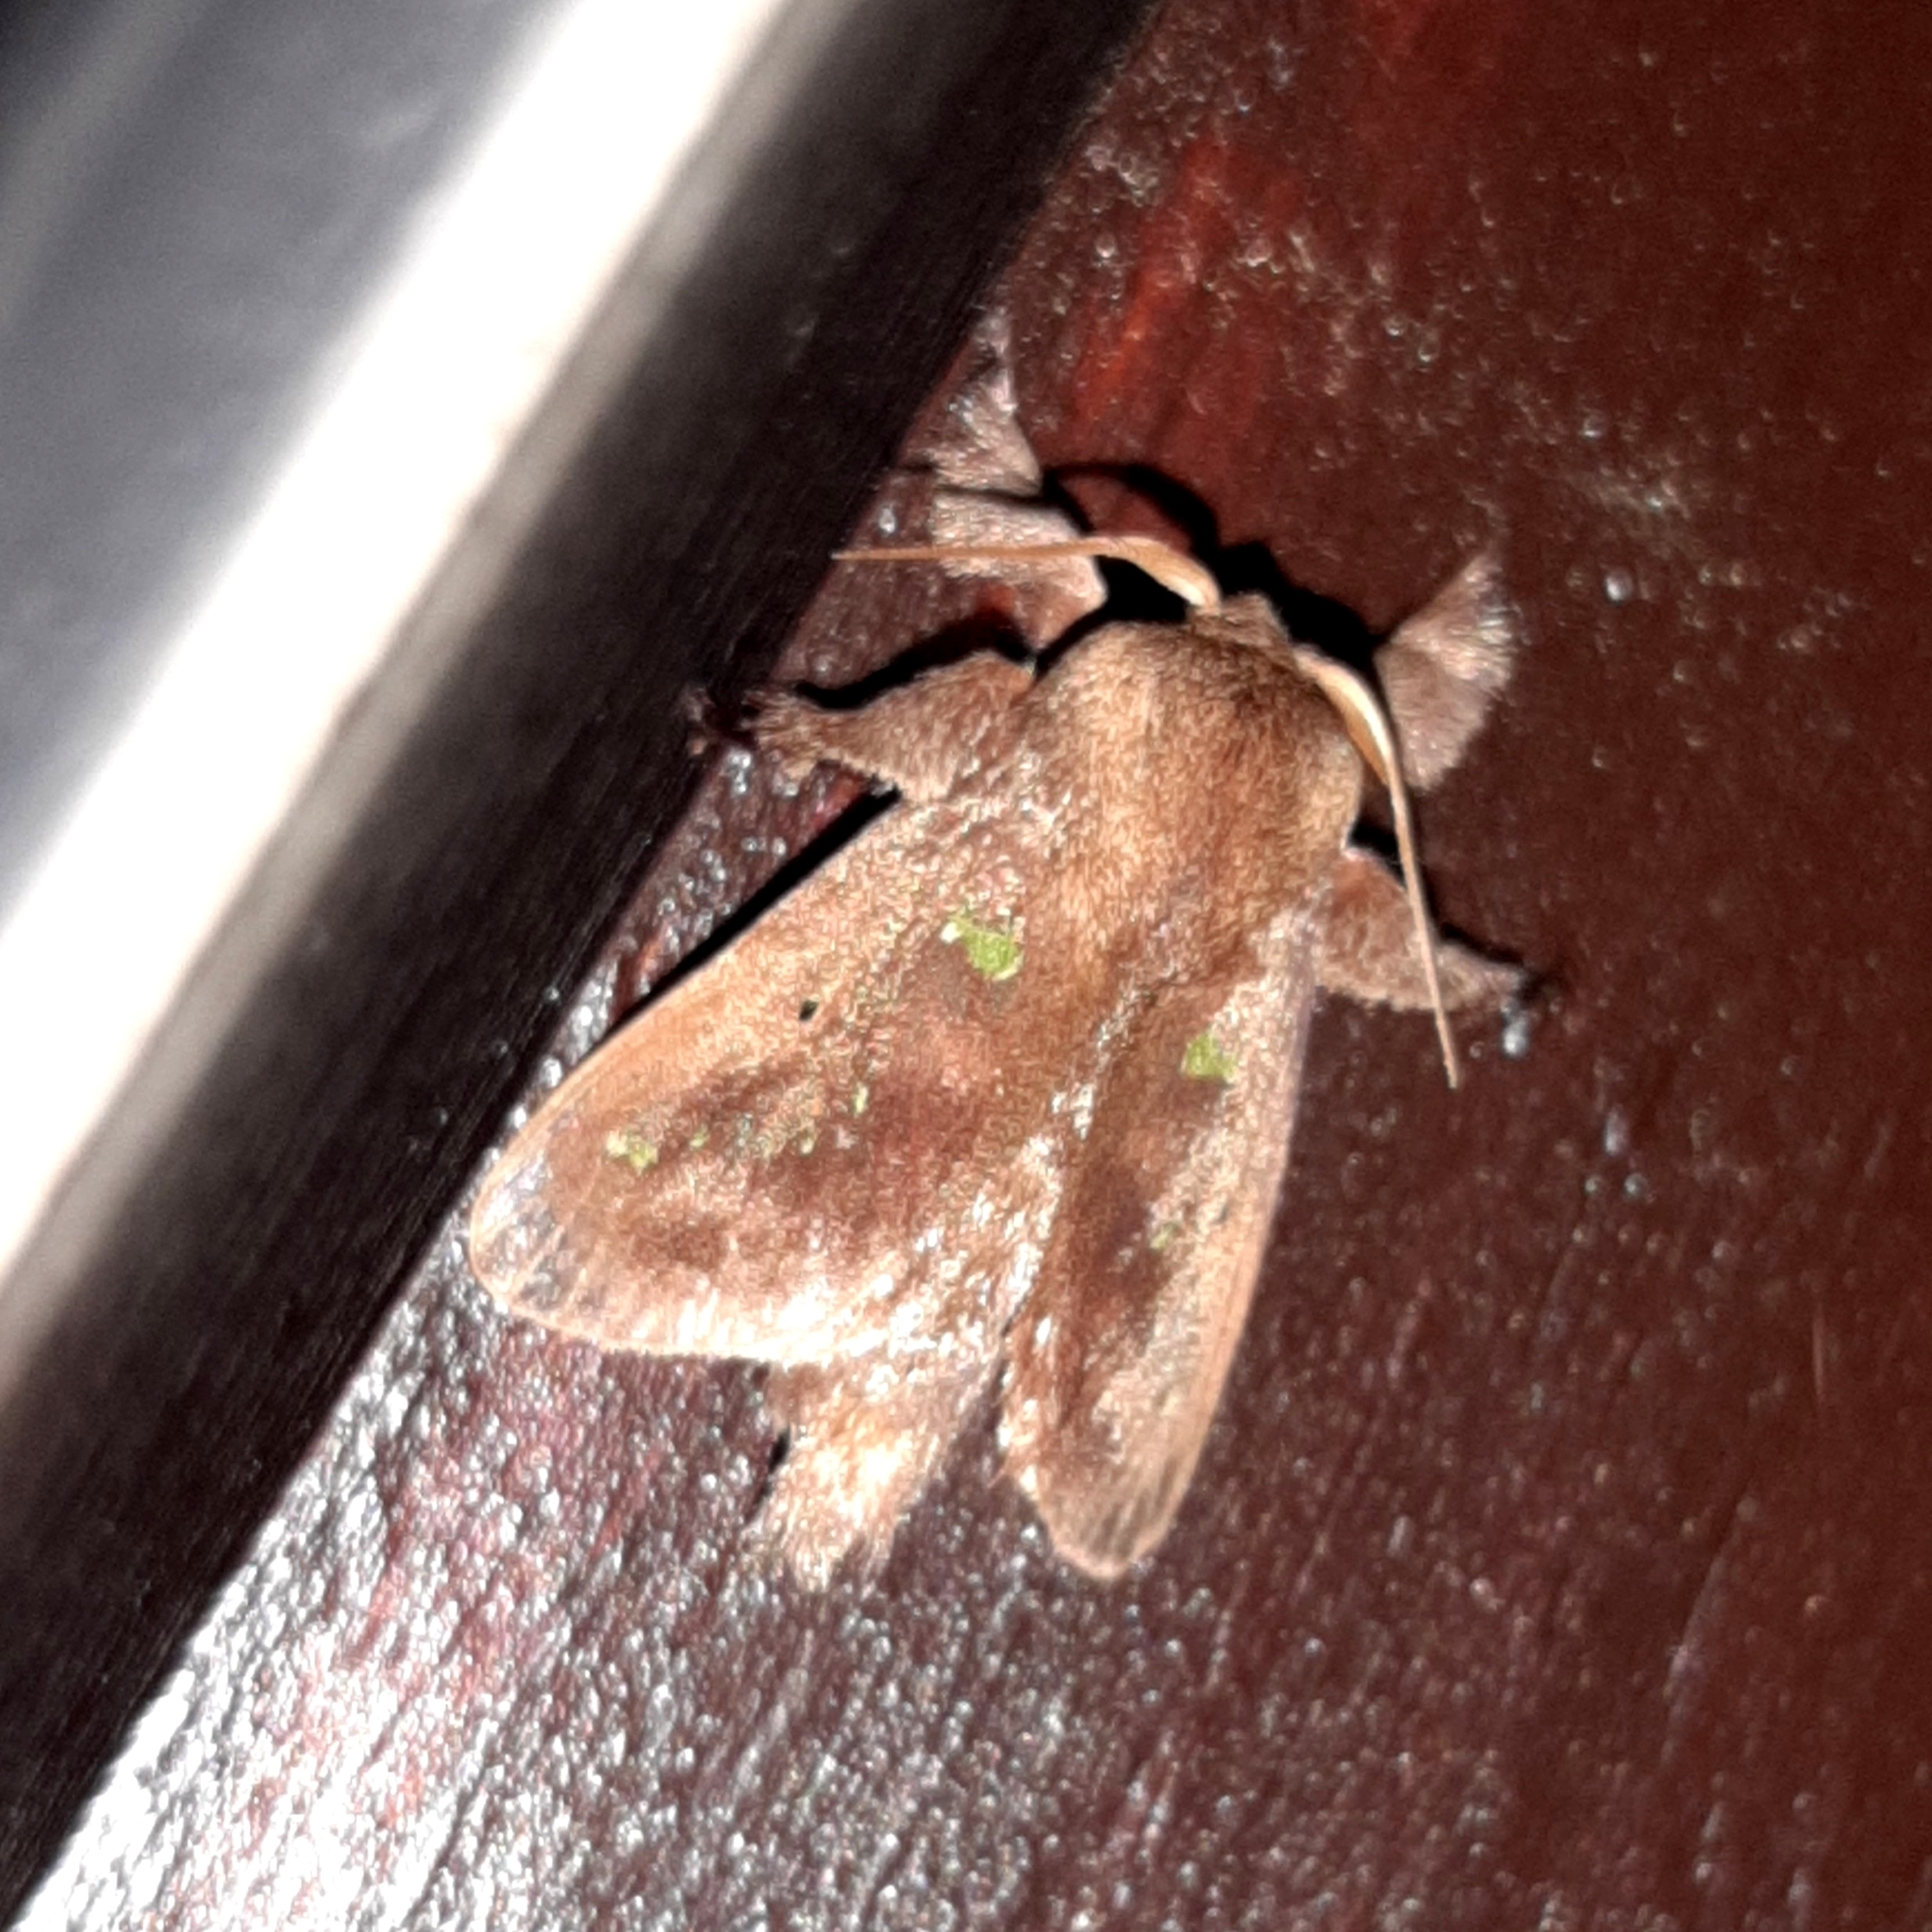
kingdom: Animalia
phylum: Arthropoda
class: Insecta
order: Lepidoptera
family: Limacodidae
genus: Euclea
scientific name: Euclea norba
